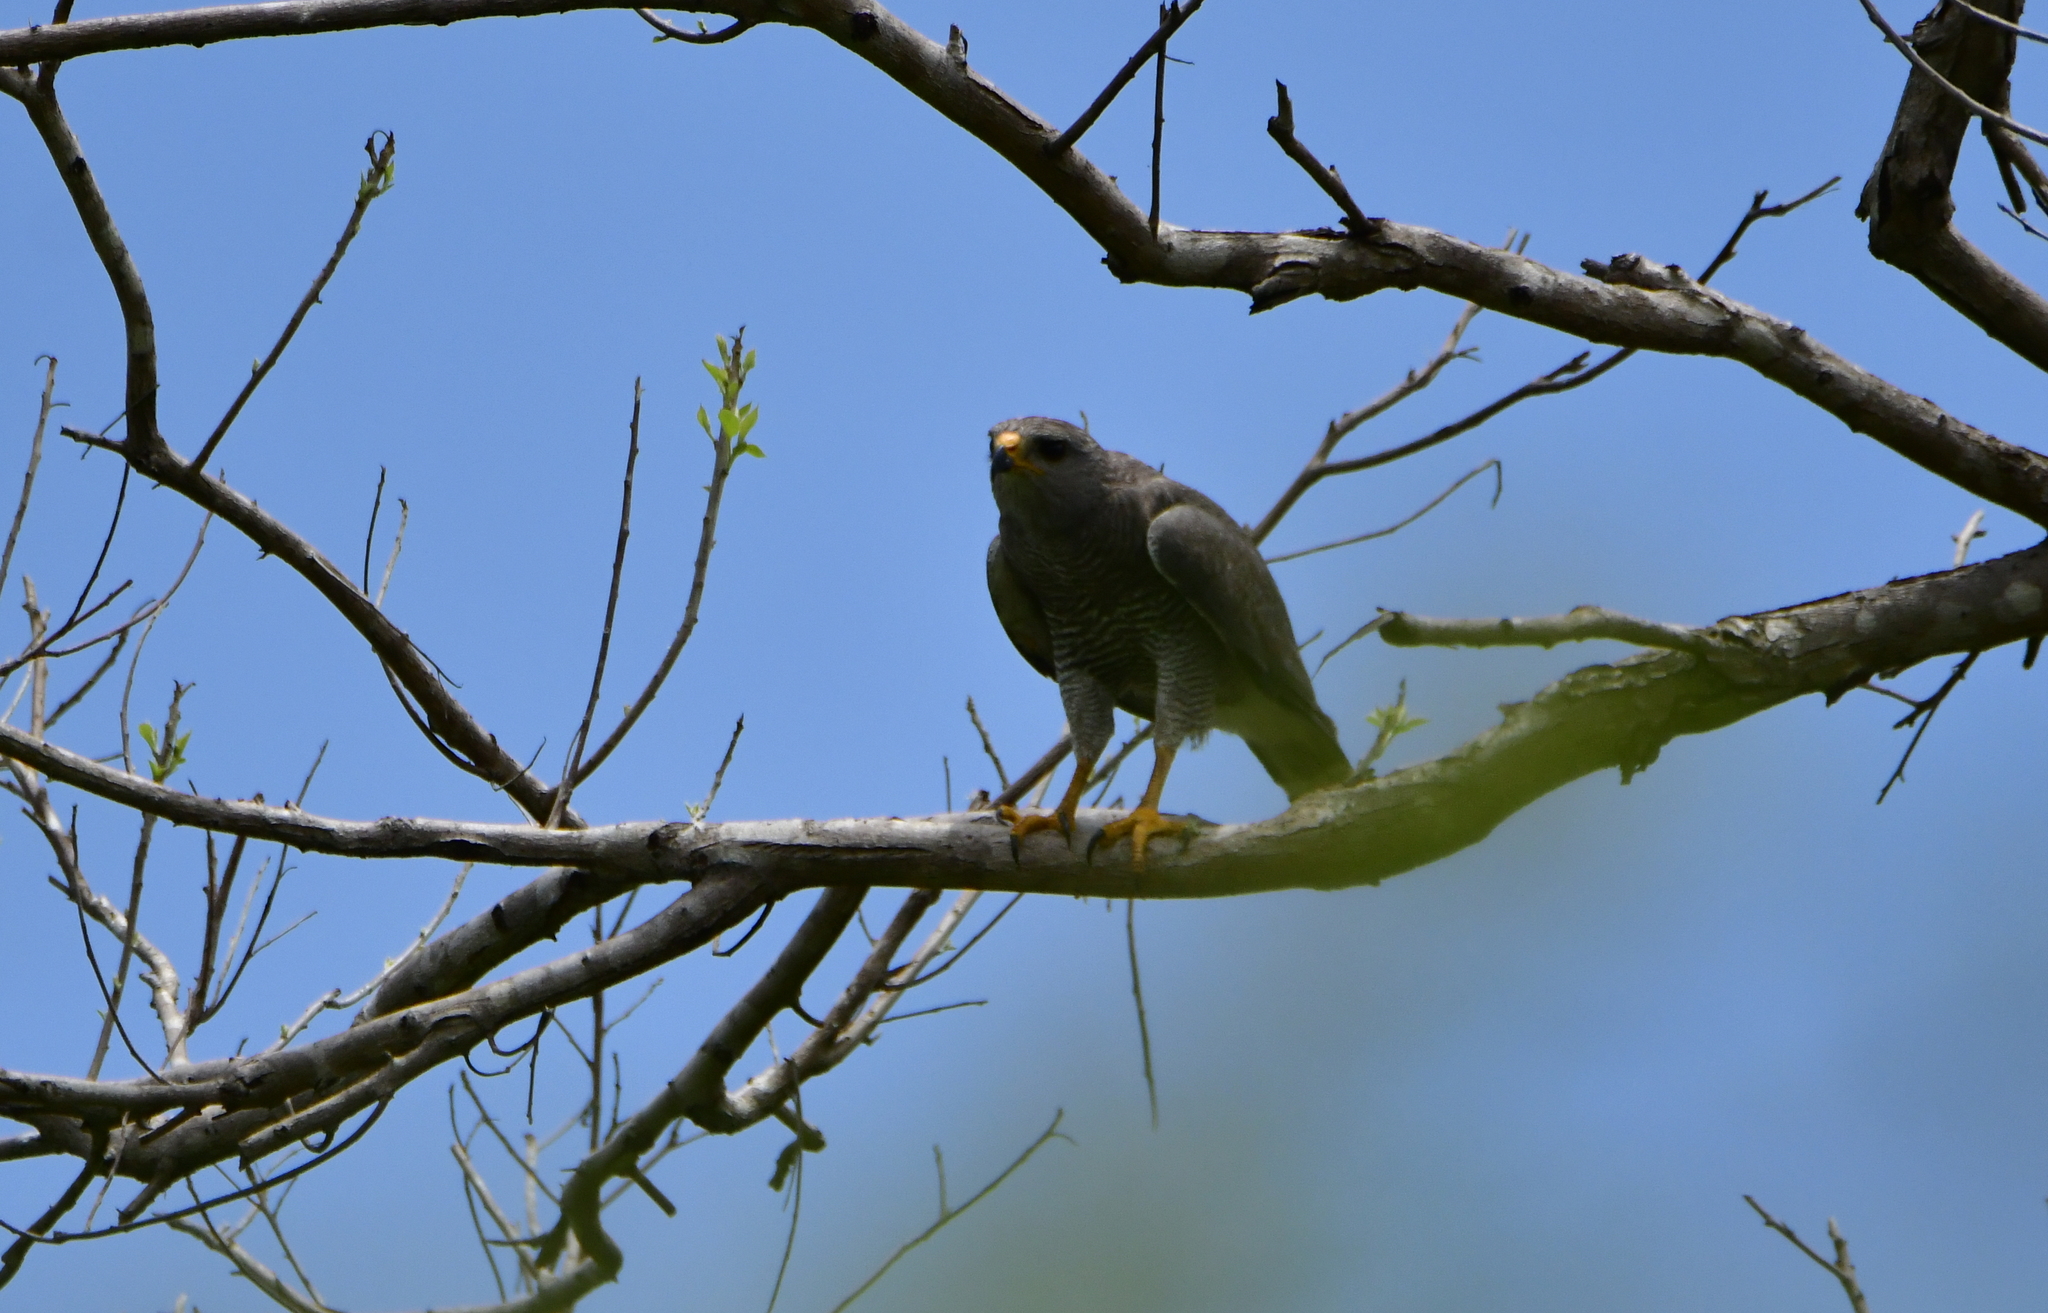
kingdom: Animalia
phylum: Chordata
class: Aves
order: Accipitriformes
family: Accipitridae
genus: Buteo
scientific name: Buteo nitidus
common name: Grey-lined hawk
